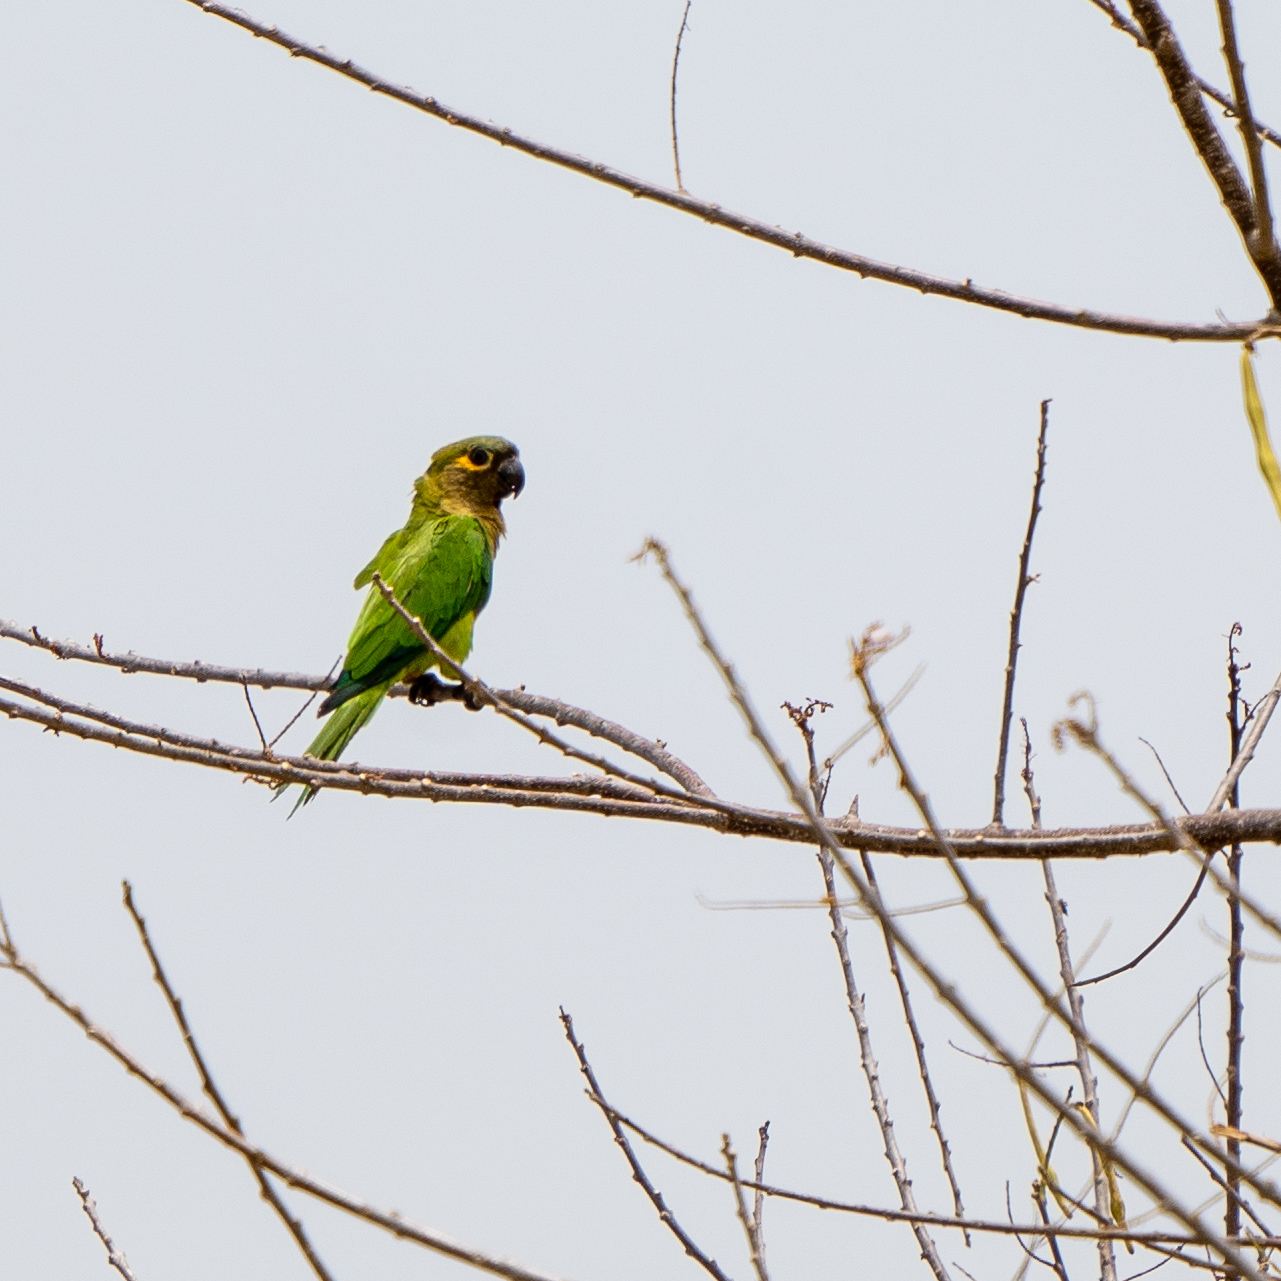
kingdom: Animalia
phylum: Chordata
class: Aves
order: Psittaciformes
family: Psittacidae
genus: Aratinga
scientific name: Aratinga pertinax
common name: Brown-throated parakeet
